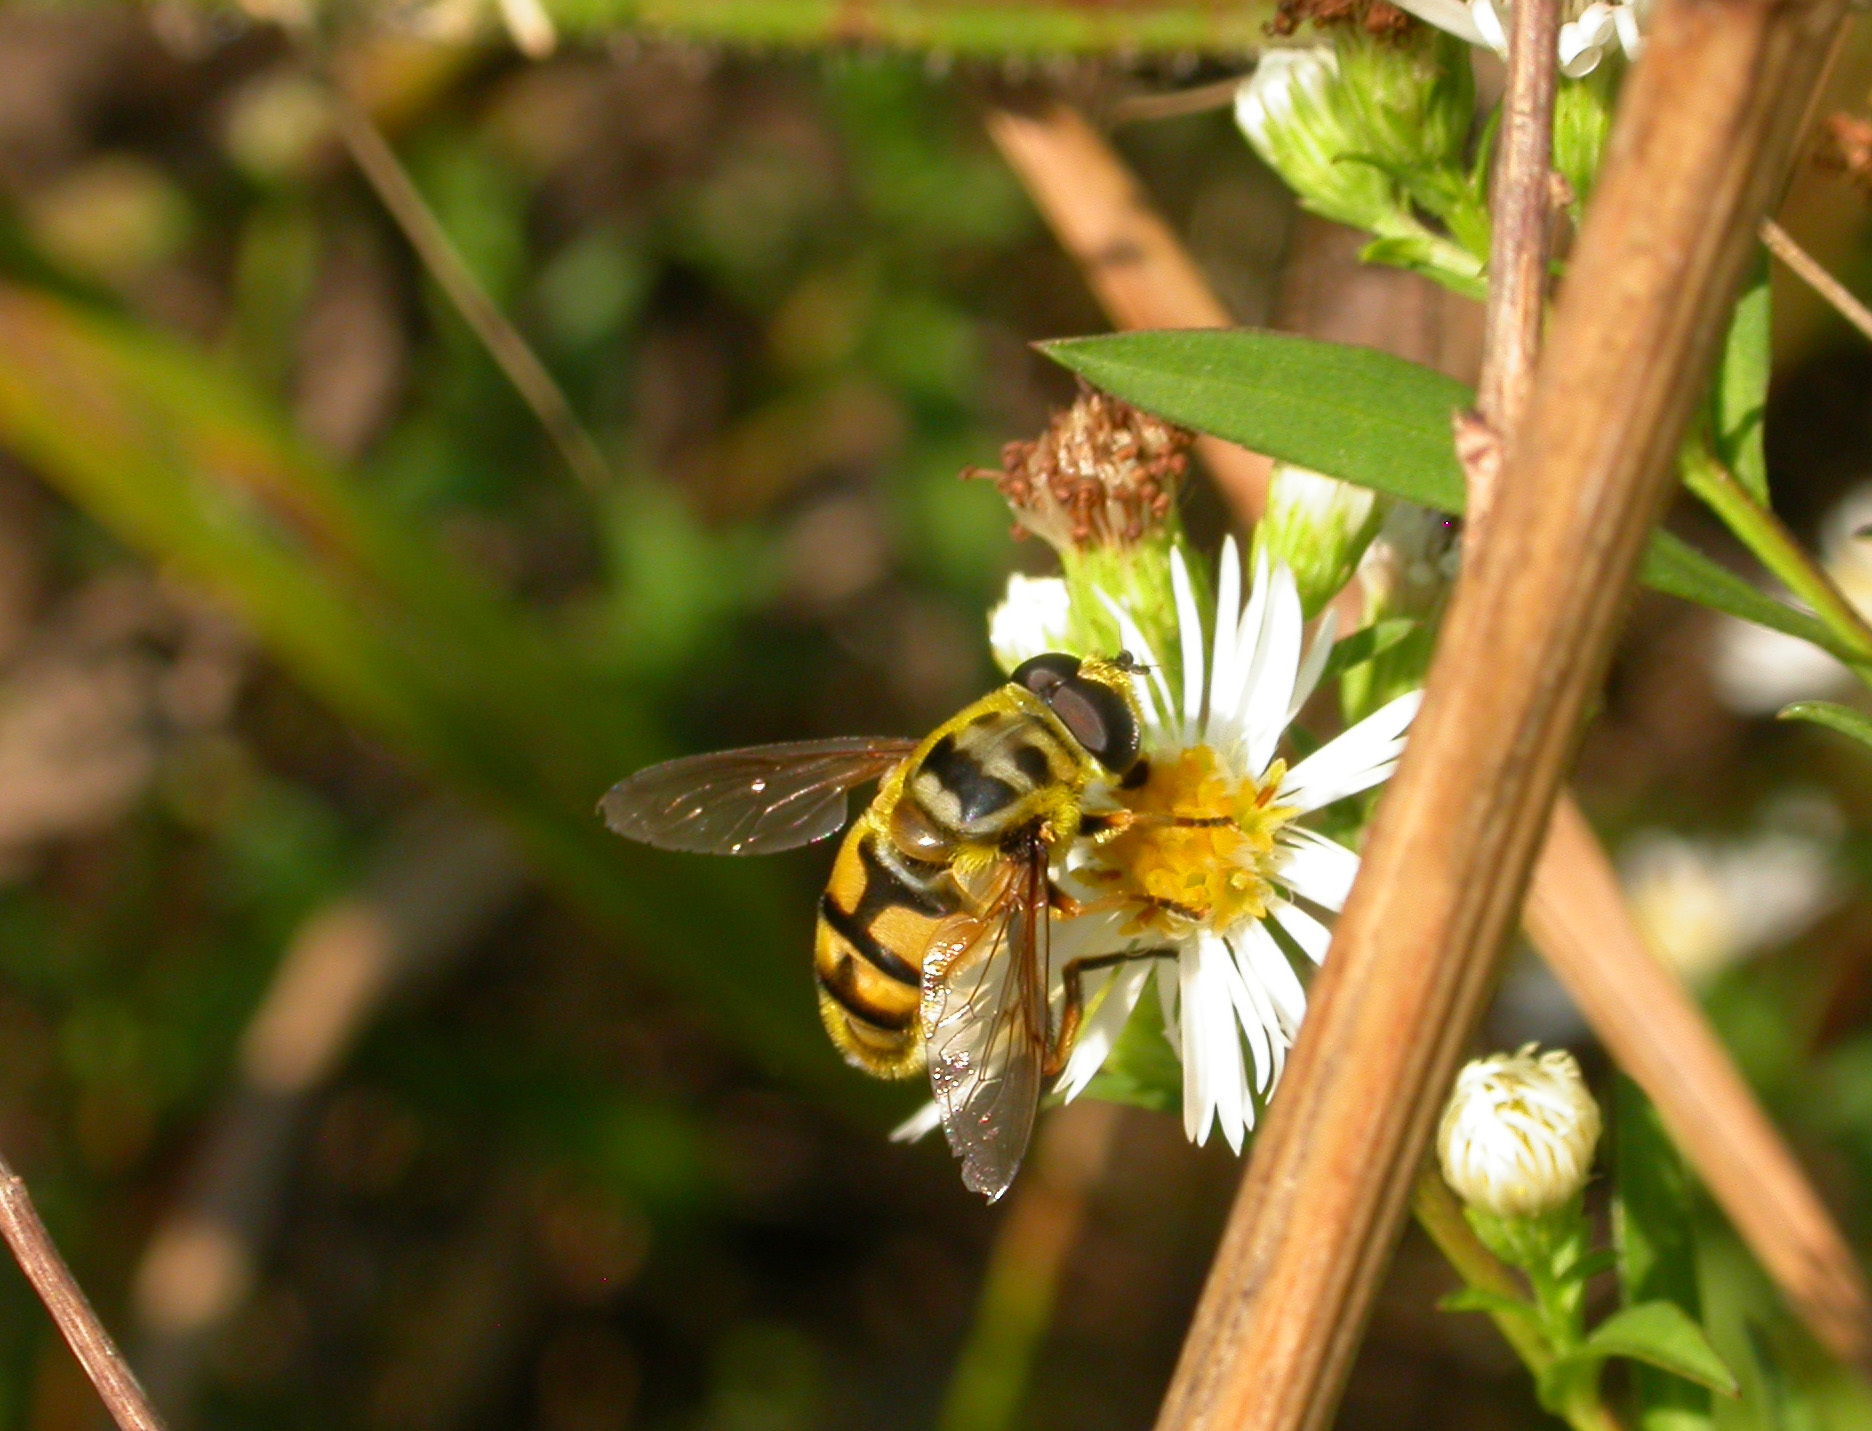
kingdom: Animalia
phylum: Arthropoda
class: Insecta
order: Diptera
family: Syrphidae
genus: Myathropa
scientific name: Myathropa florea
